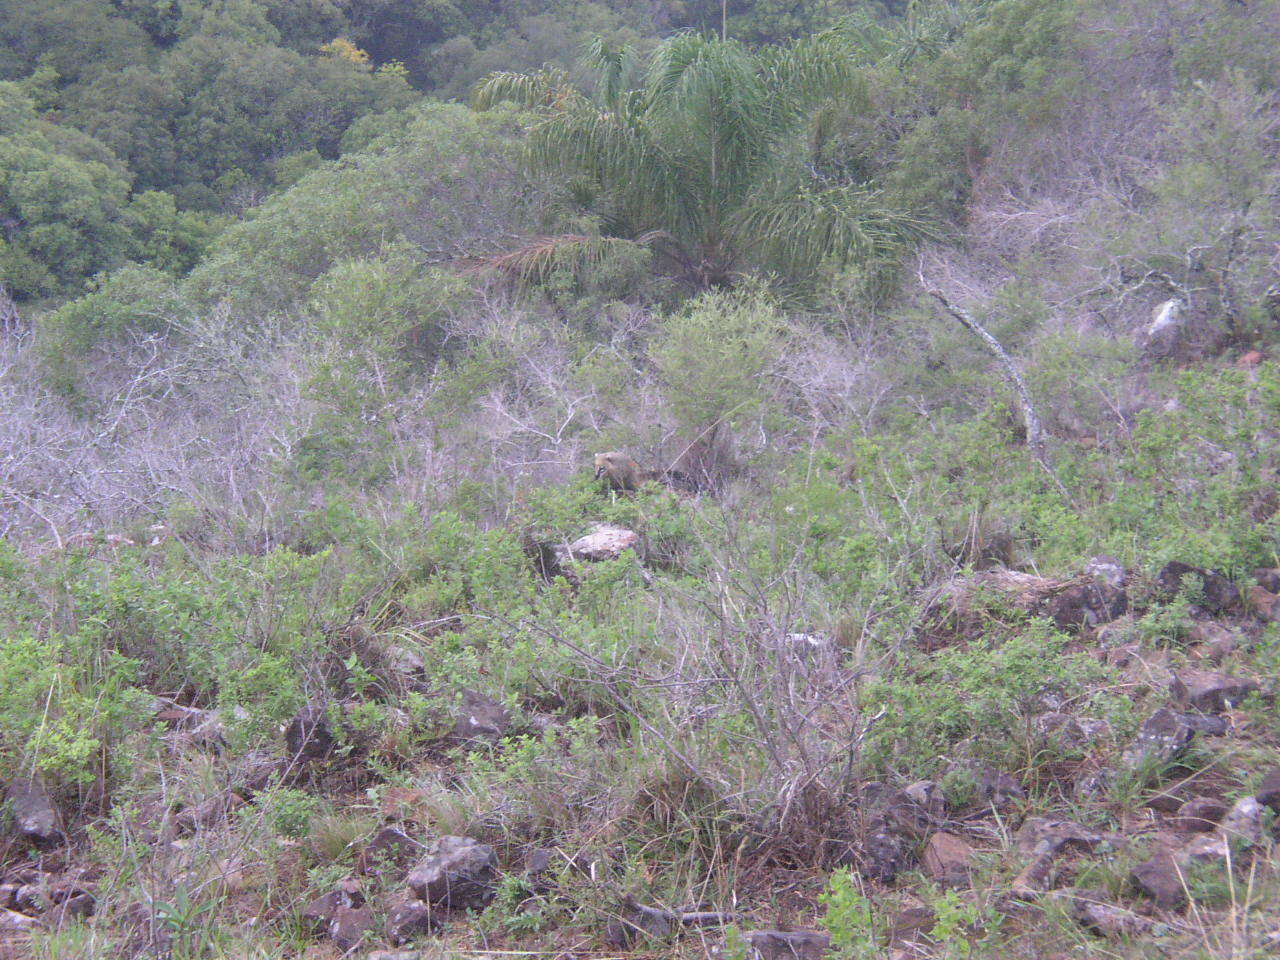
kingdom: Animalia
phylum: Chordata
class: Mammalia
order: Carnivora
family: Procyonidae
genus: Nasua
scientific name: Nasua nasua
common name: South american coati
